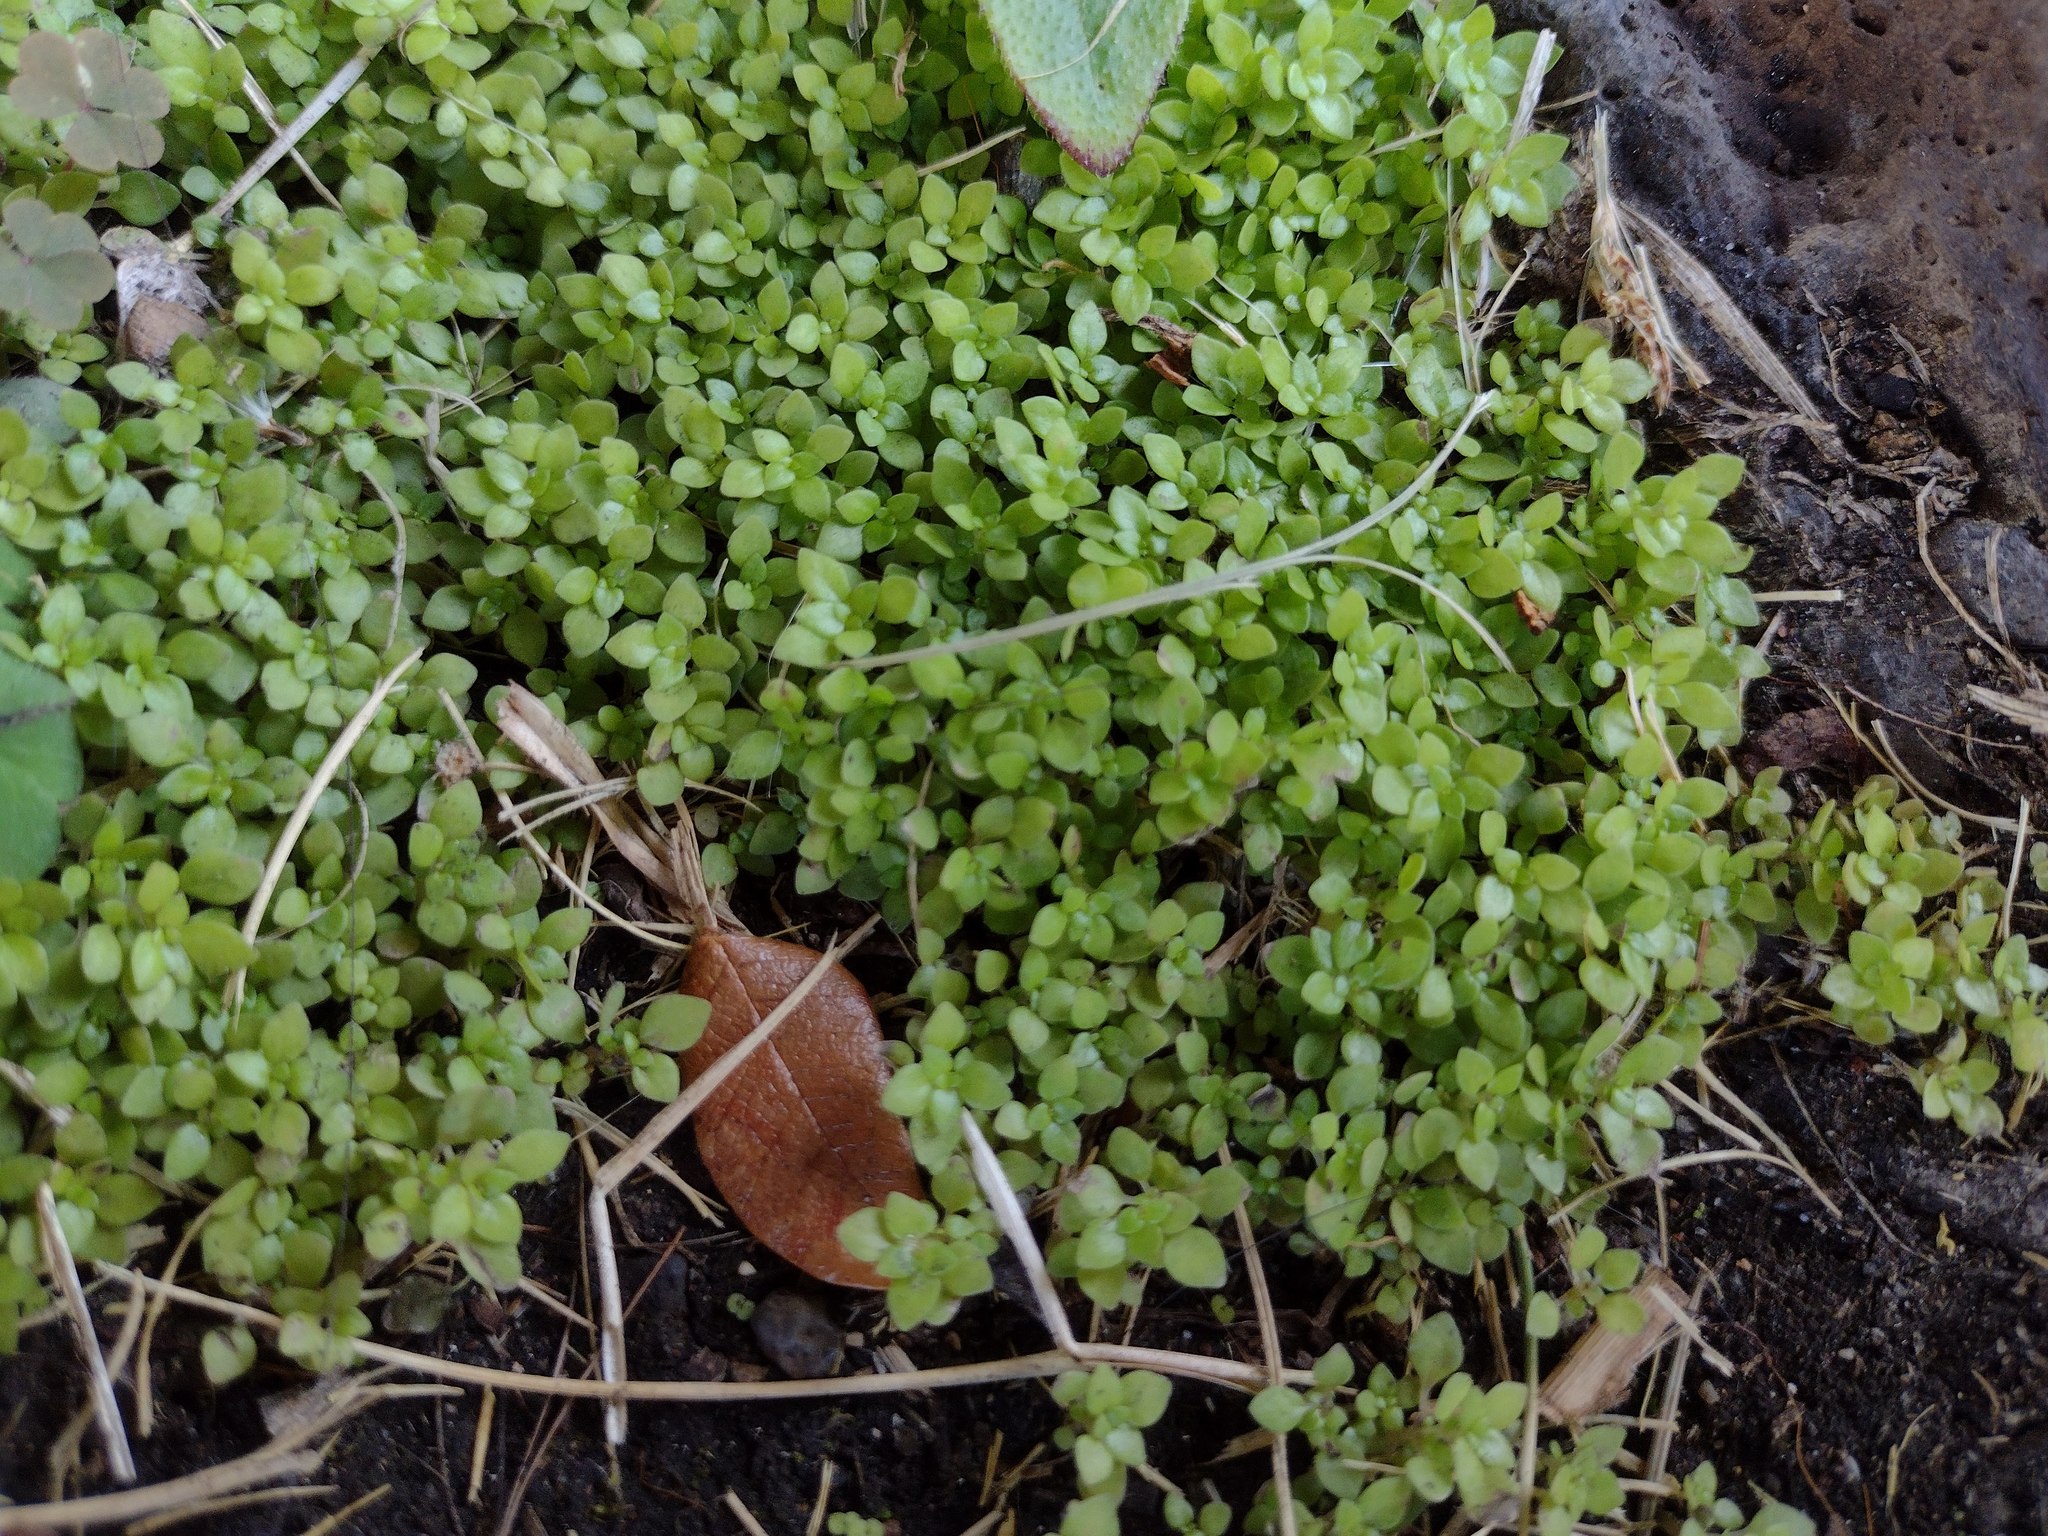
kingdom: Plantae
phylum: Tracheophyta
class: Magnoliopsida
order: Rosales
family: Urticaceae
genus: Pilea
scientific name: Pilea microphylla
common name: Artillery-plant
